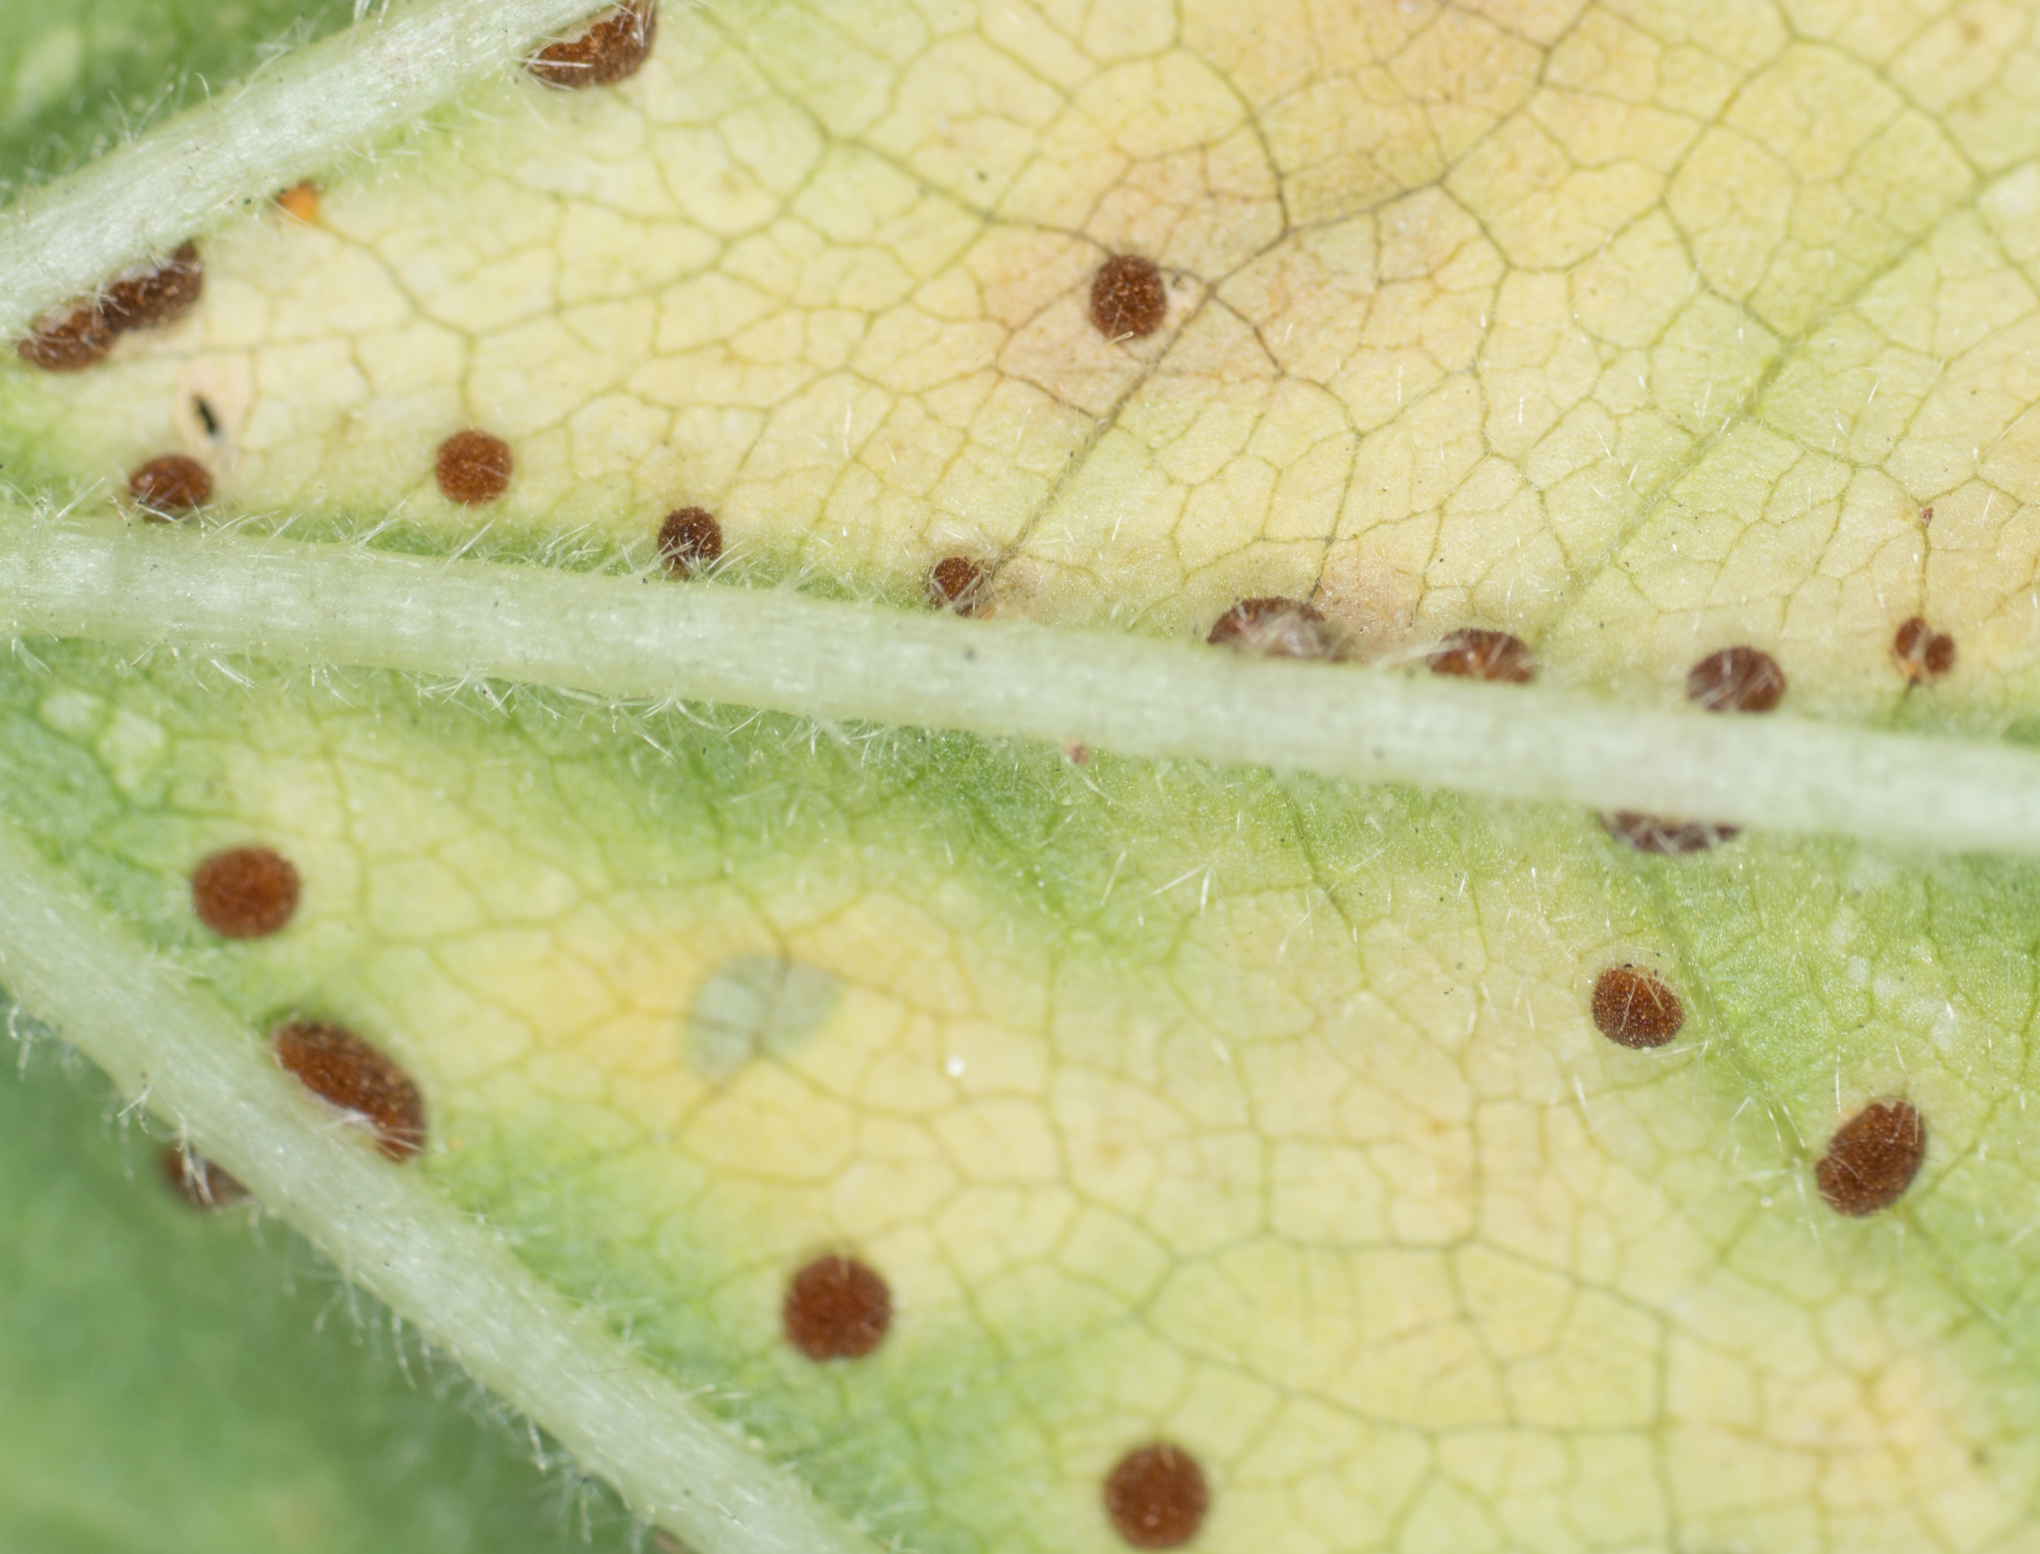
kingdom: Fungi
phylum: Basidiomycota
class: Pucciniomycetes
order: Pucciniales
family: Pucciniaceae
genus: Puccinia
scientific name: Puccinia malvacearum
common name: Hollyhock rust
